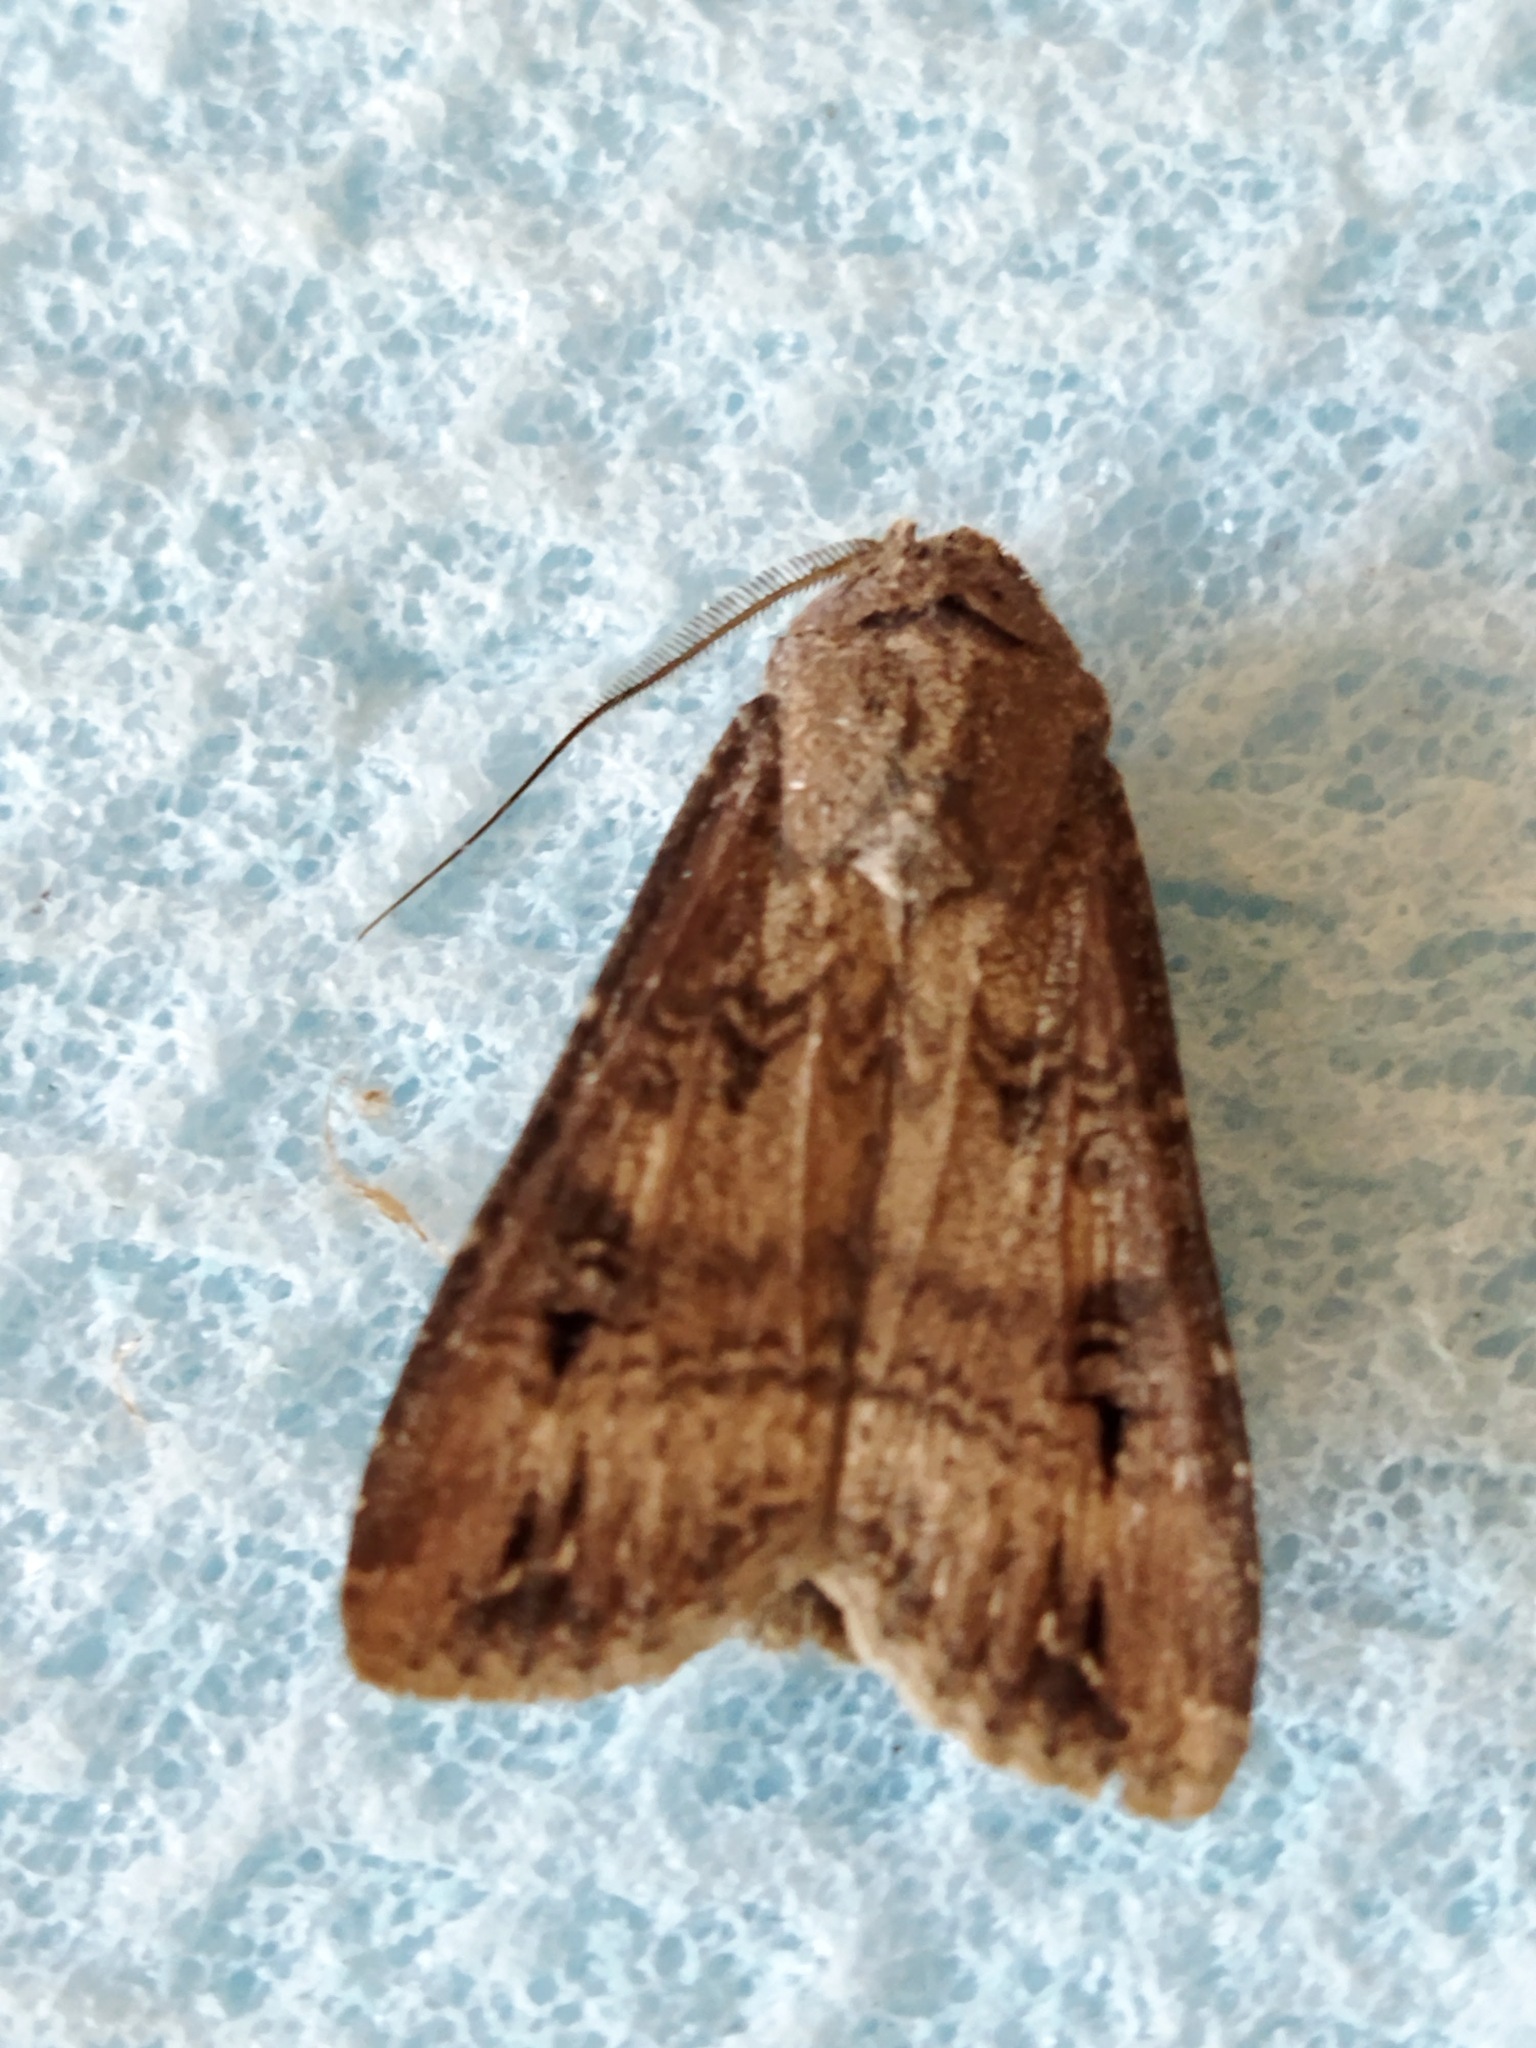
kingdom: Animalia
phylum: Arthropoda
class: Insecta
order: Lepidoptera
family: Noctuidae
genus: Agrotis
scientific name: Agrotis ipsilon
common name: Dark sword-grass
